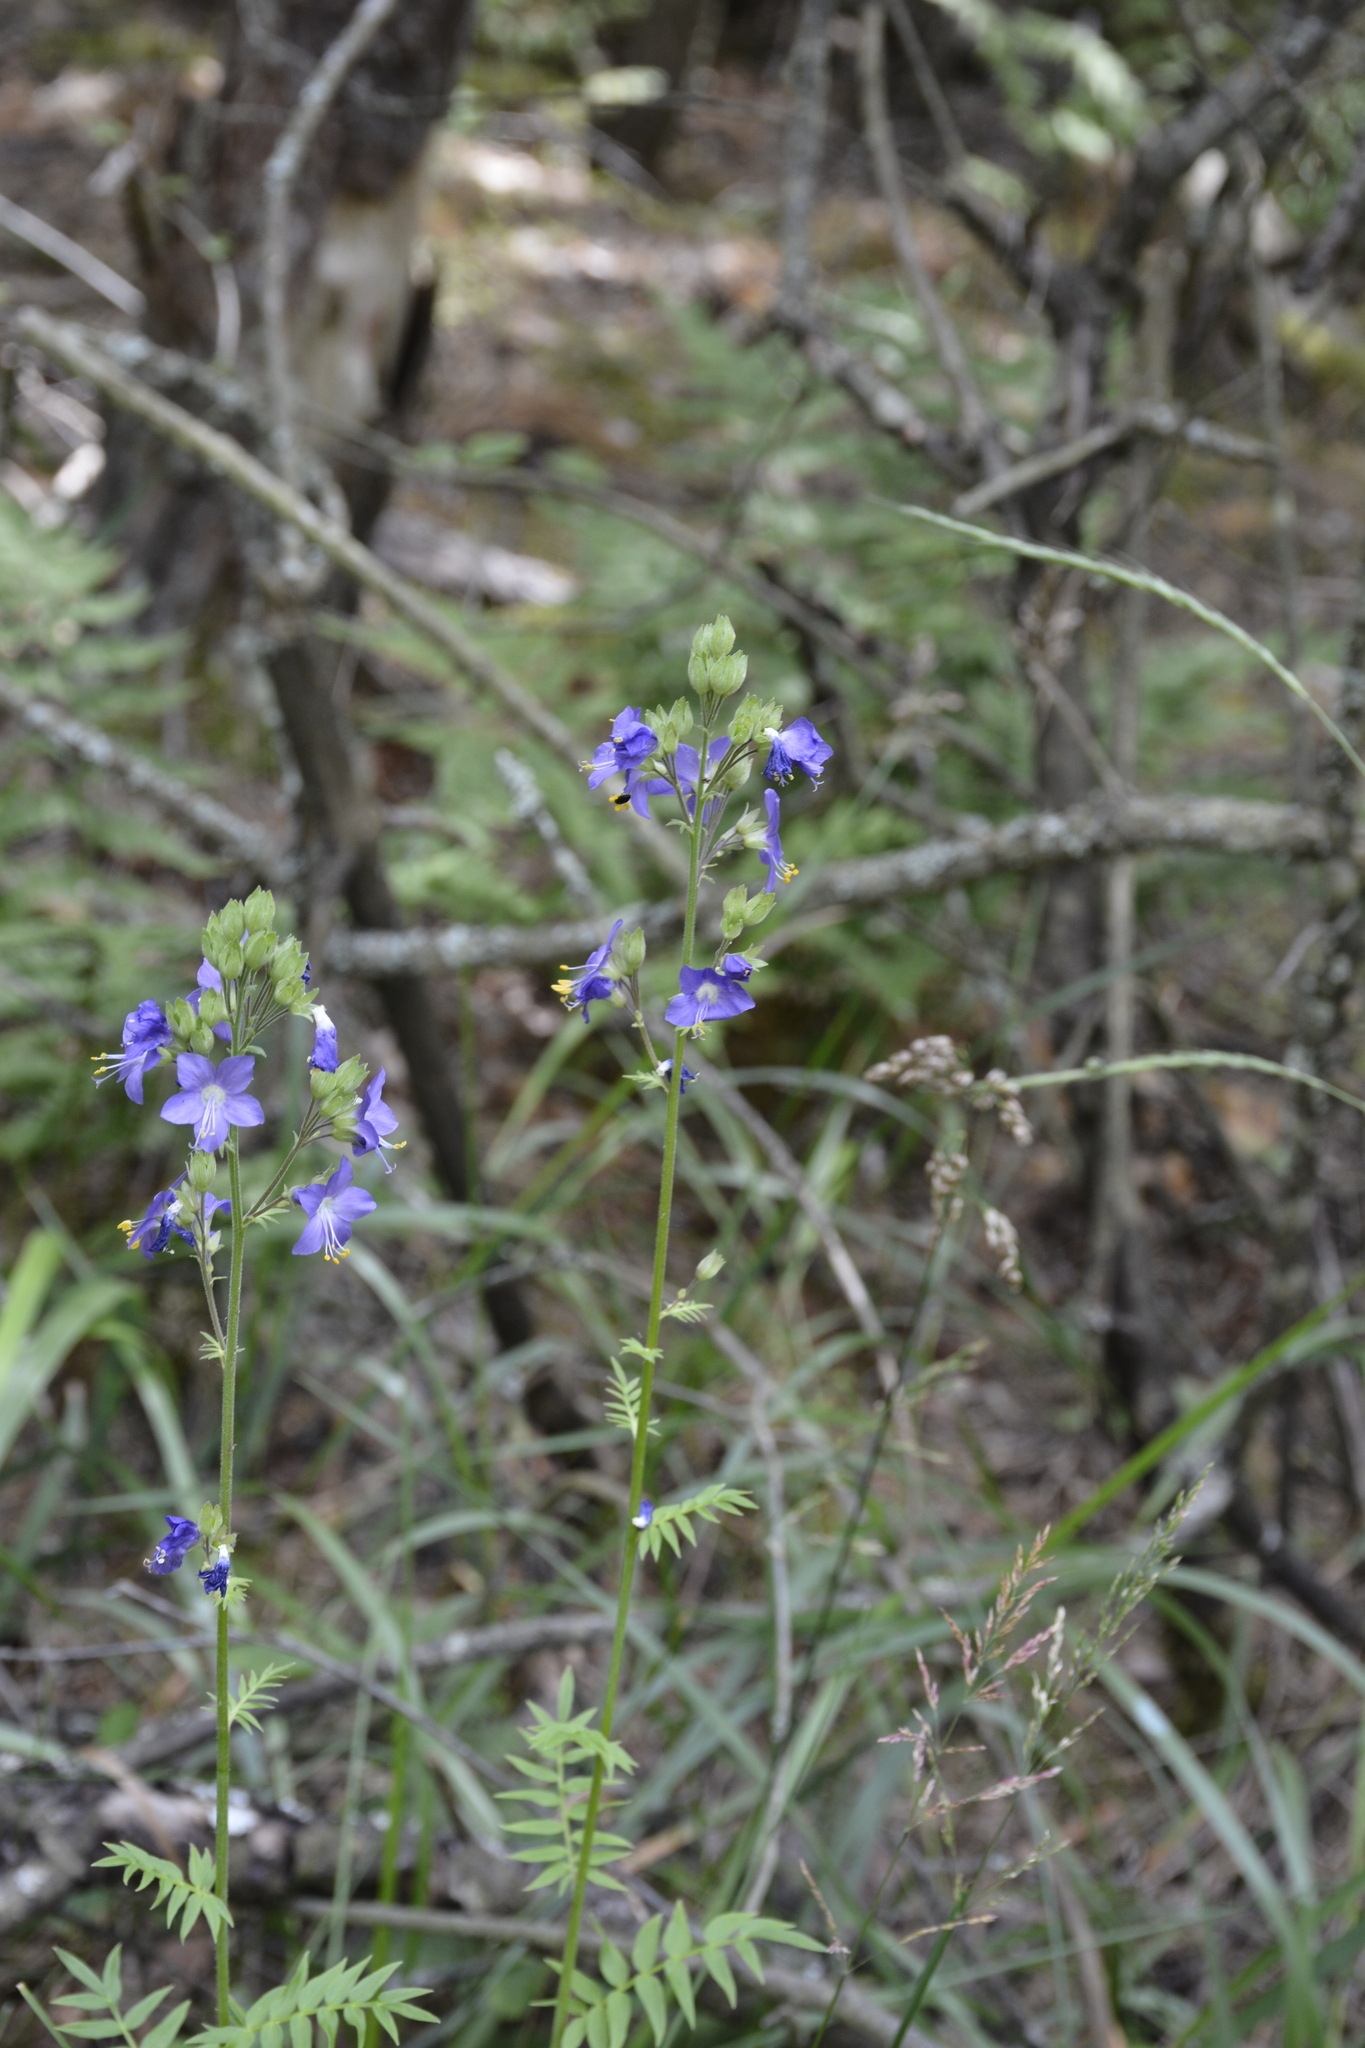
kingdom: Plantae
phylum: Tracheophyta
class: Magnoliopsida
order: Ericales
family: Polemoniaceae
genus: Polemonium
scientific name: Polemonium caeruleum
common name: Jacob's-ladder
